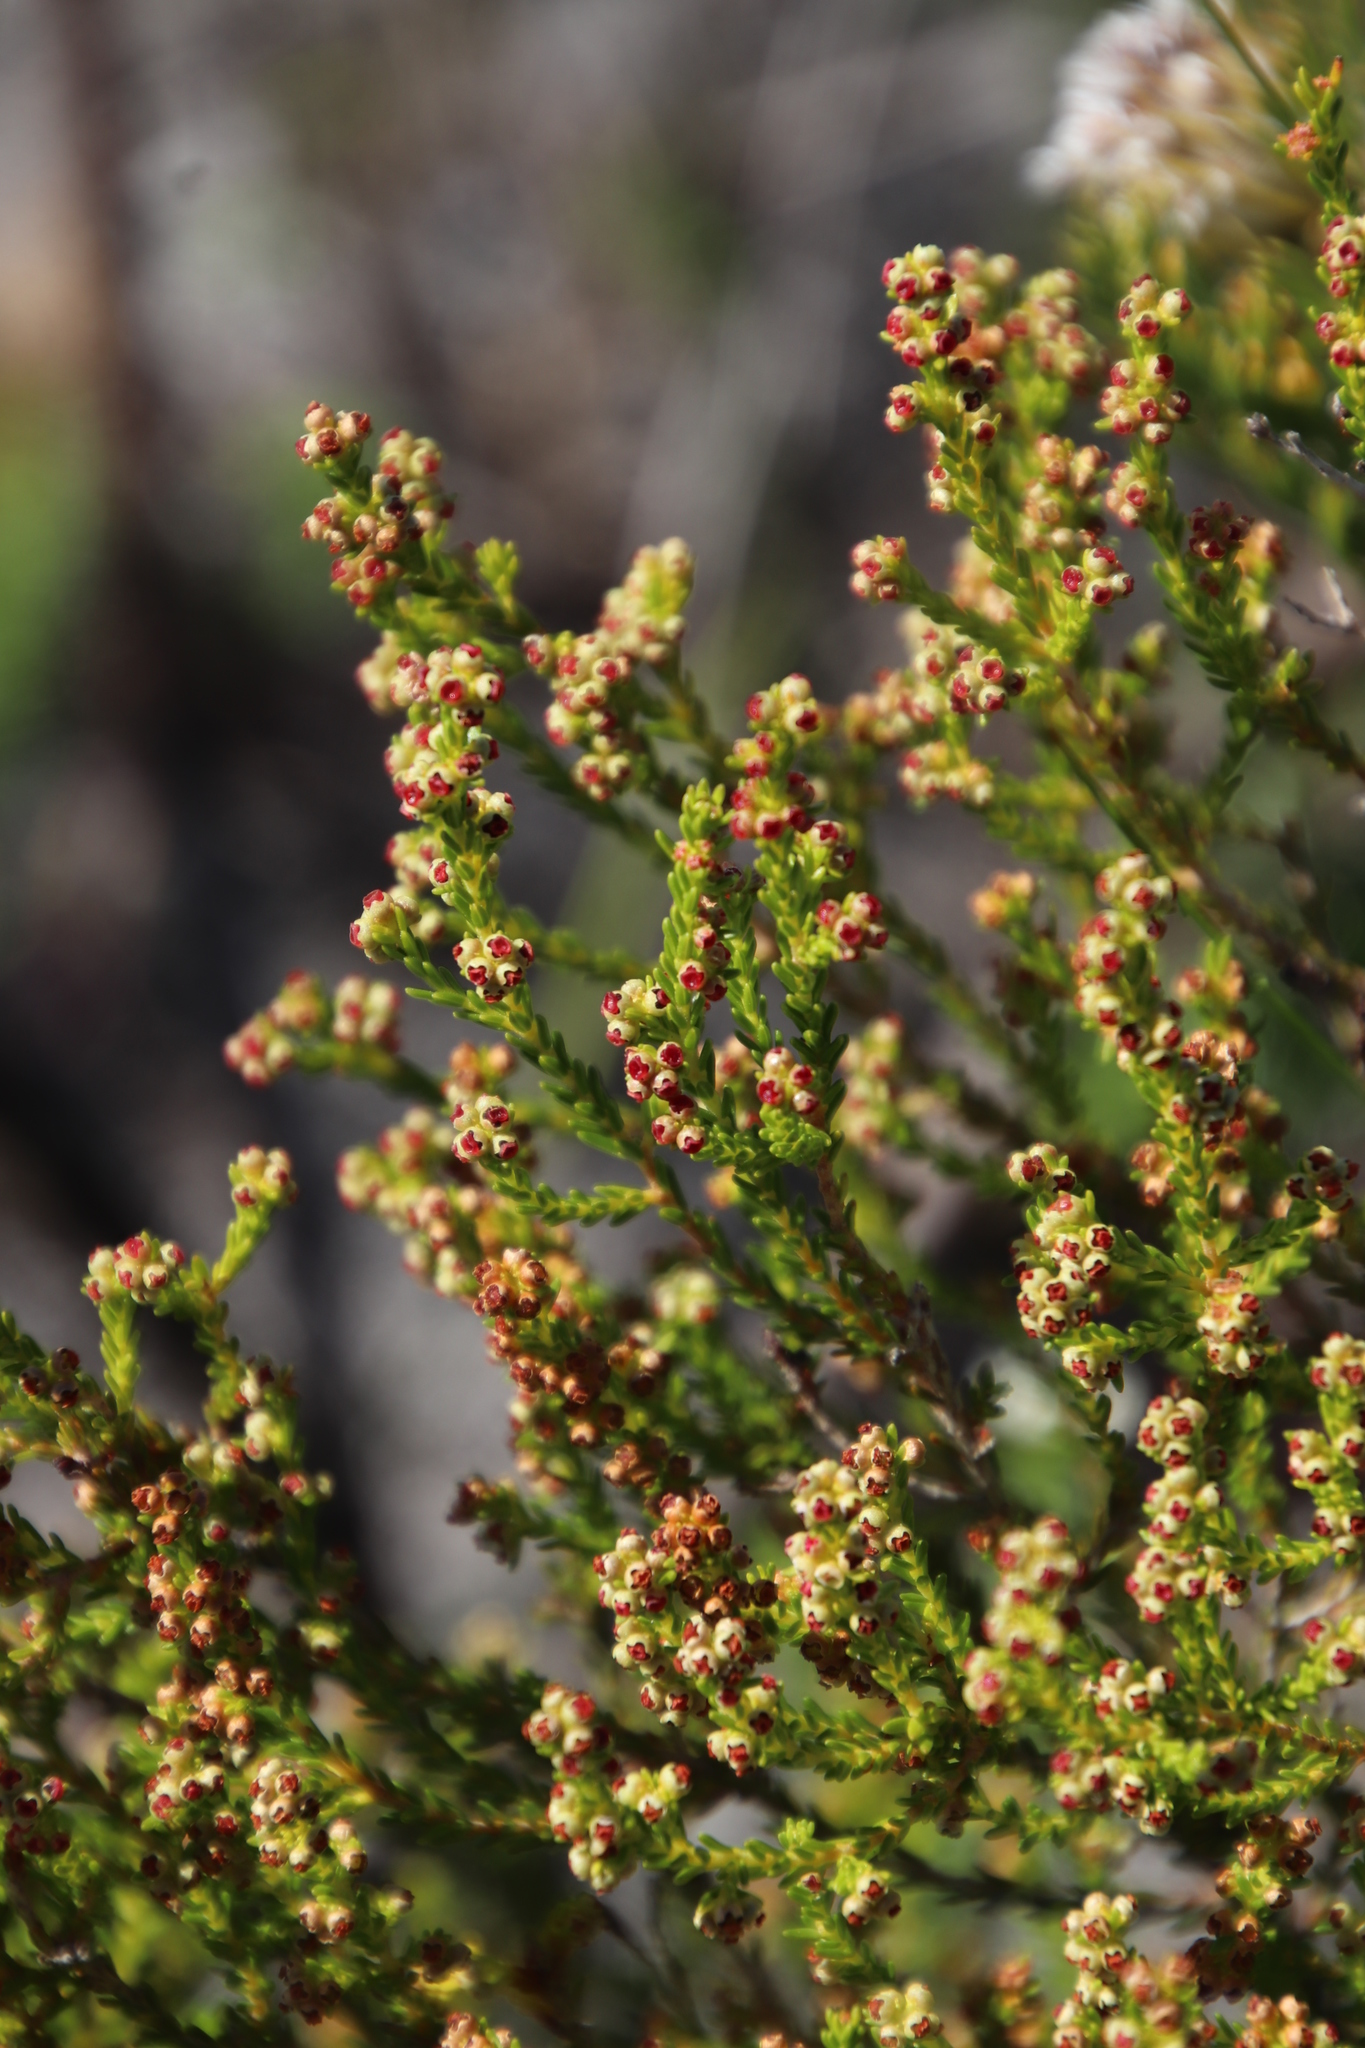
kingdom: Plantae
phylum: Tracheophyta
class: Magnoliopsida
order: Ericales
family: Ericaceae
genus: Erica
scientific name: Erica axillaris
